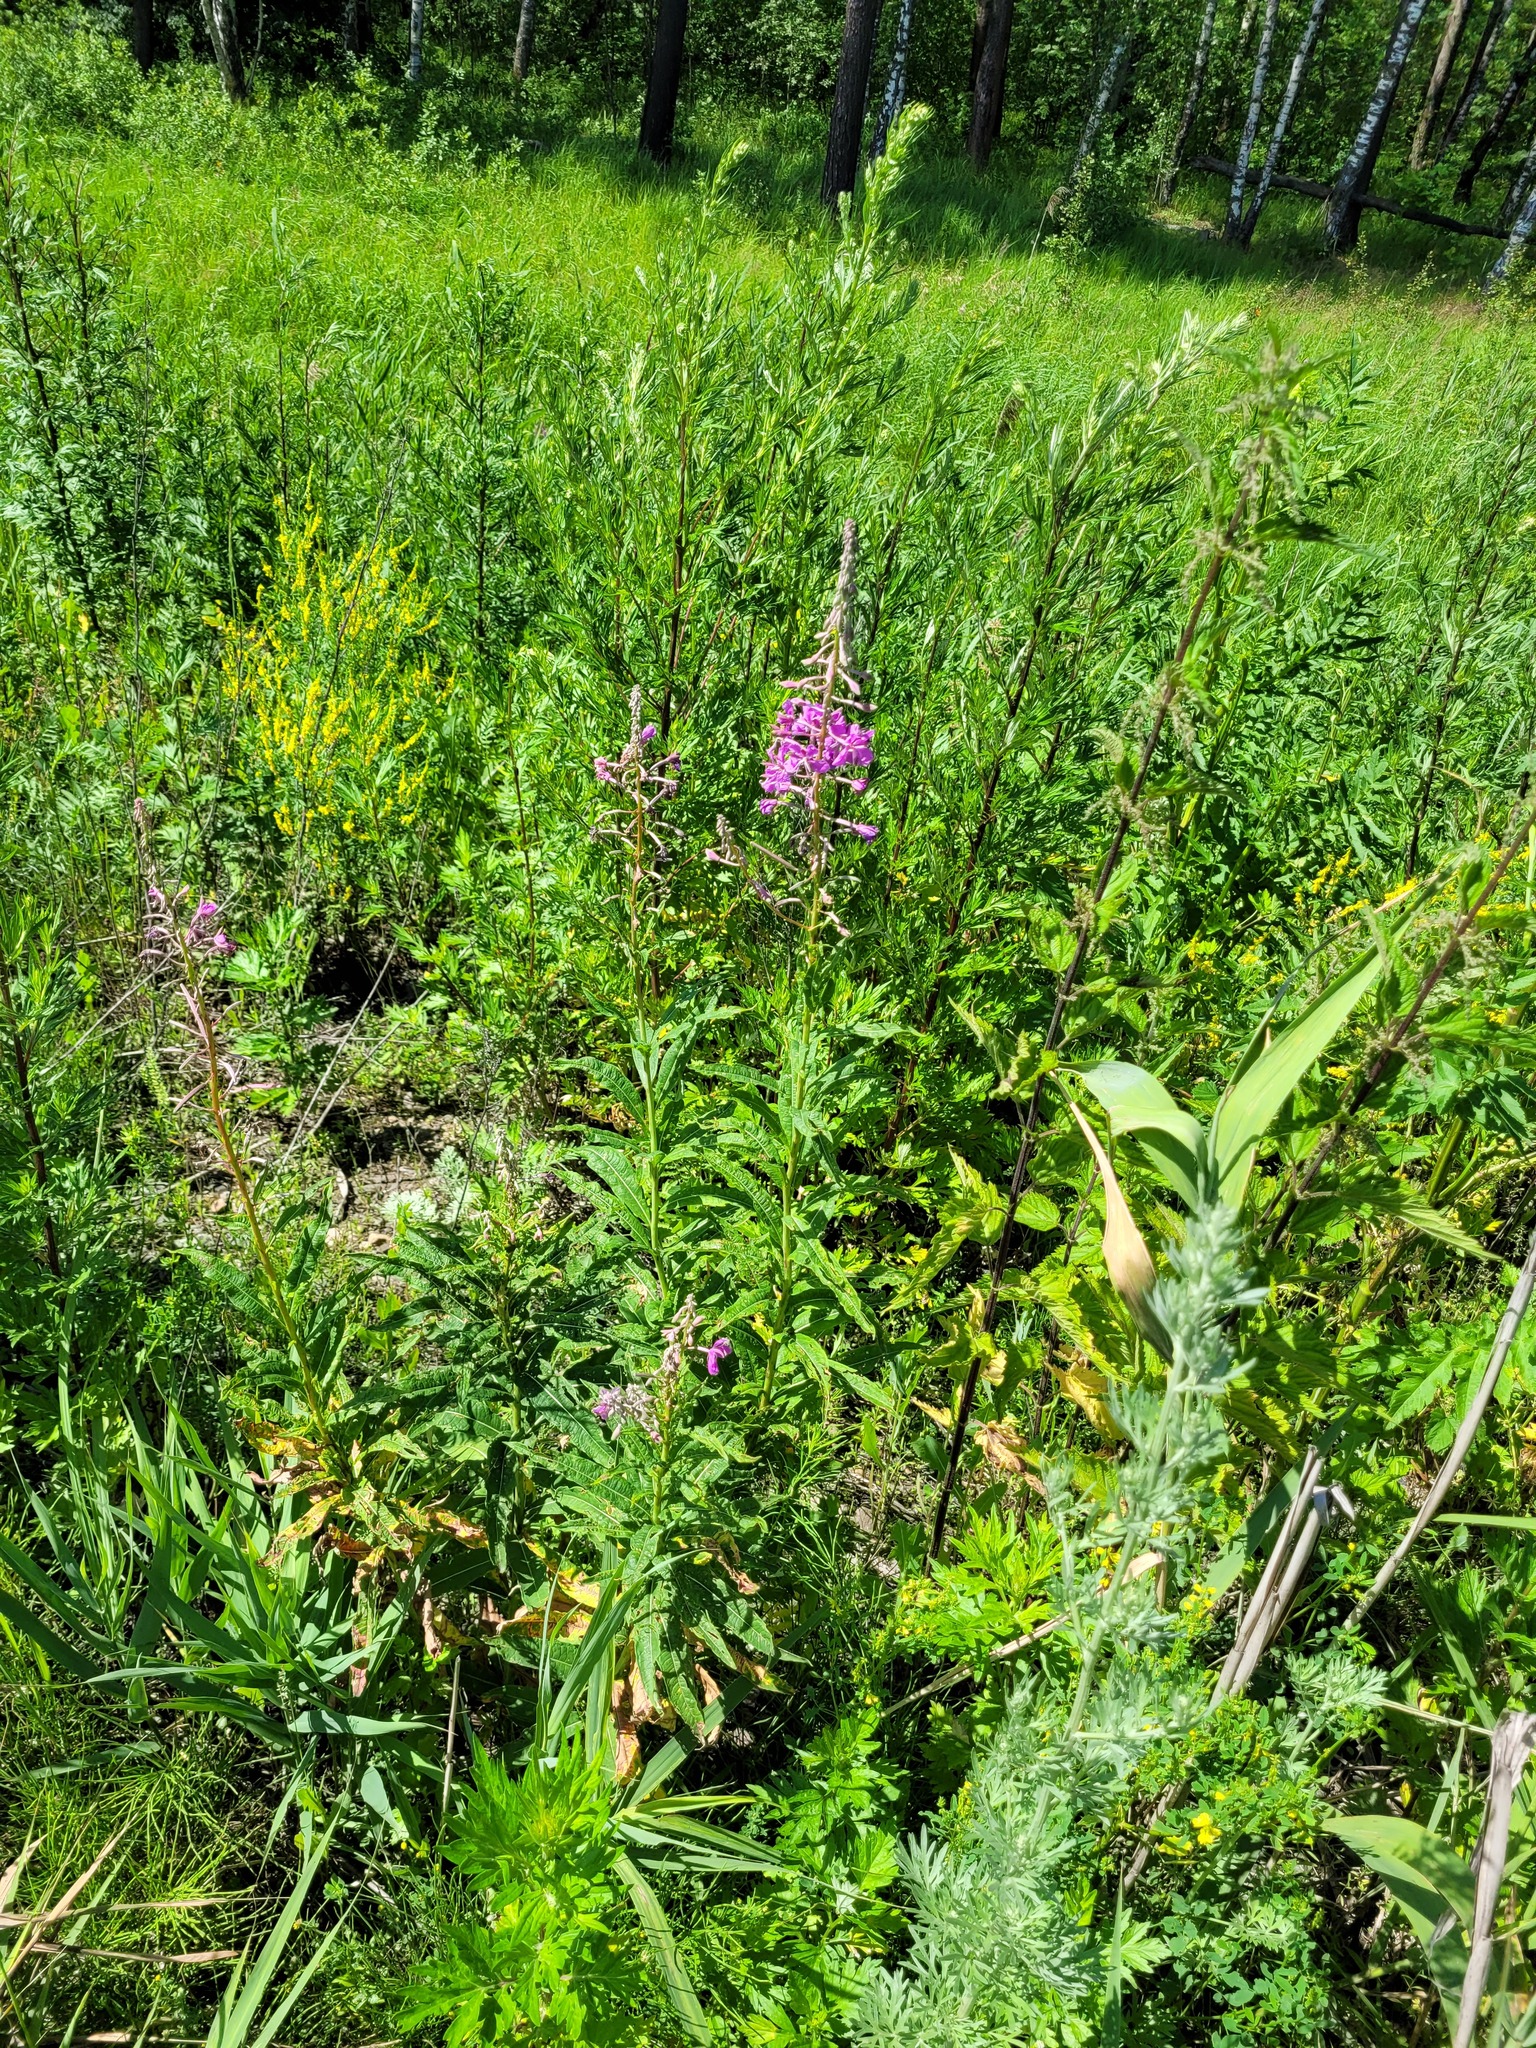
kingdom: Plantae
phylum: Tracheophyta
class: Magnoliopsida
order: Myrtales
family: Onagraceae
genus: Chamaenerion
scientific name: Chamaenerion angustifolium
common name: Fireweed
